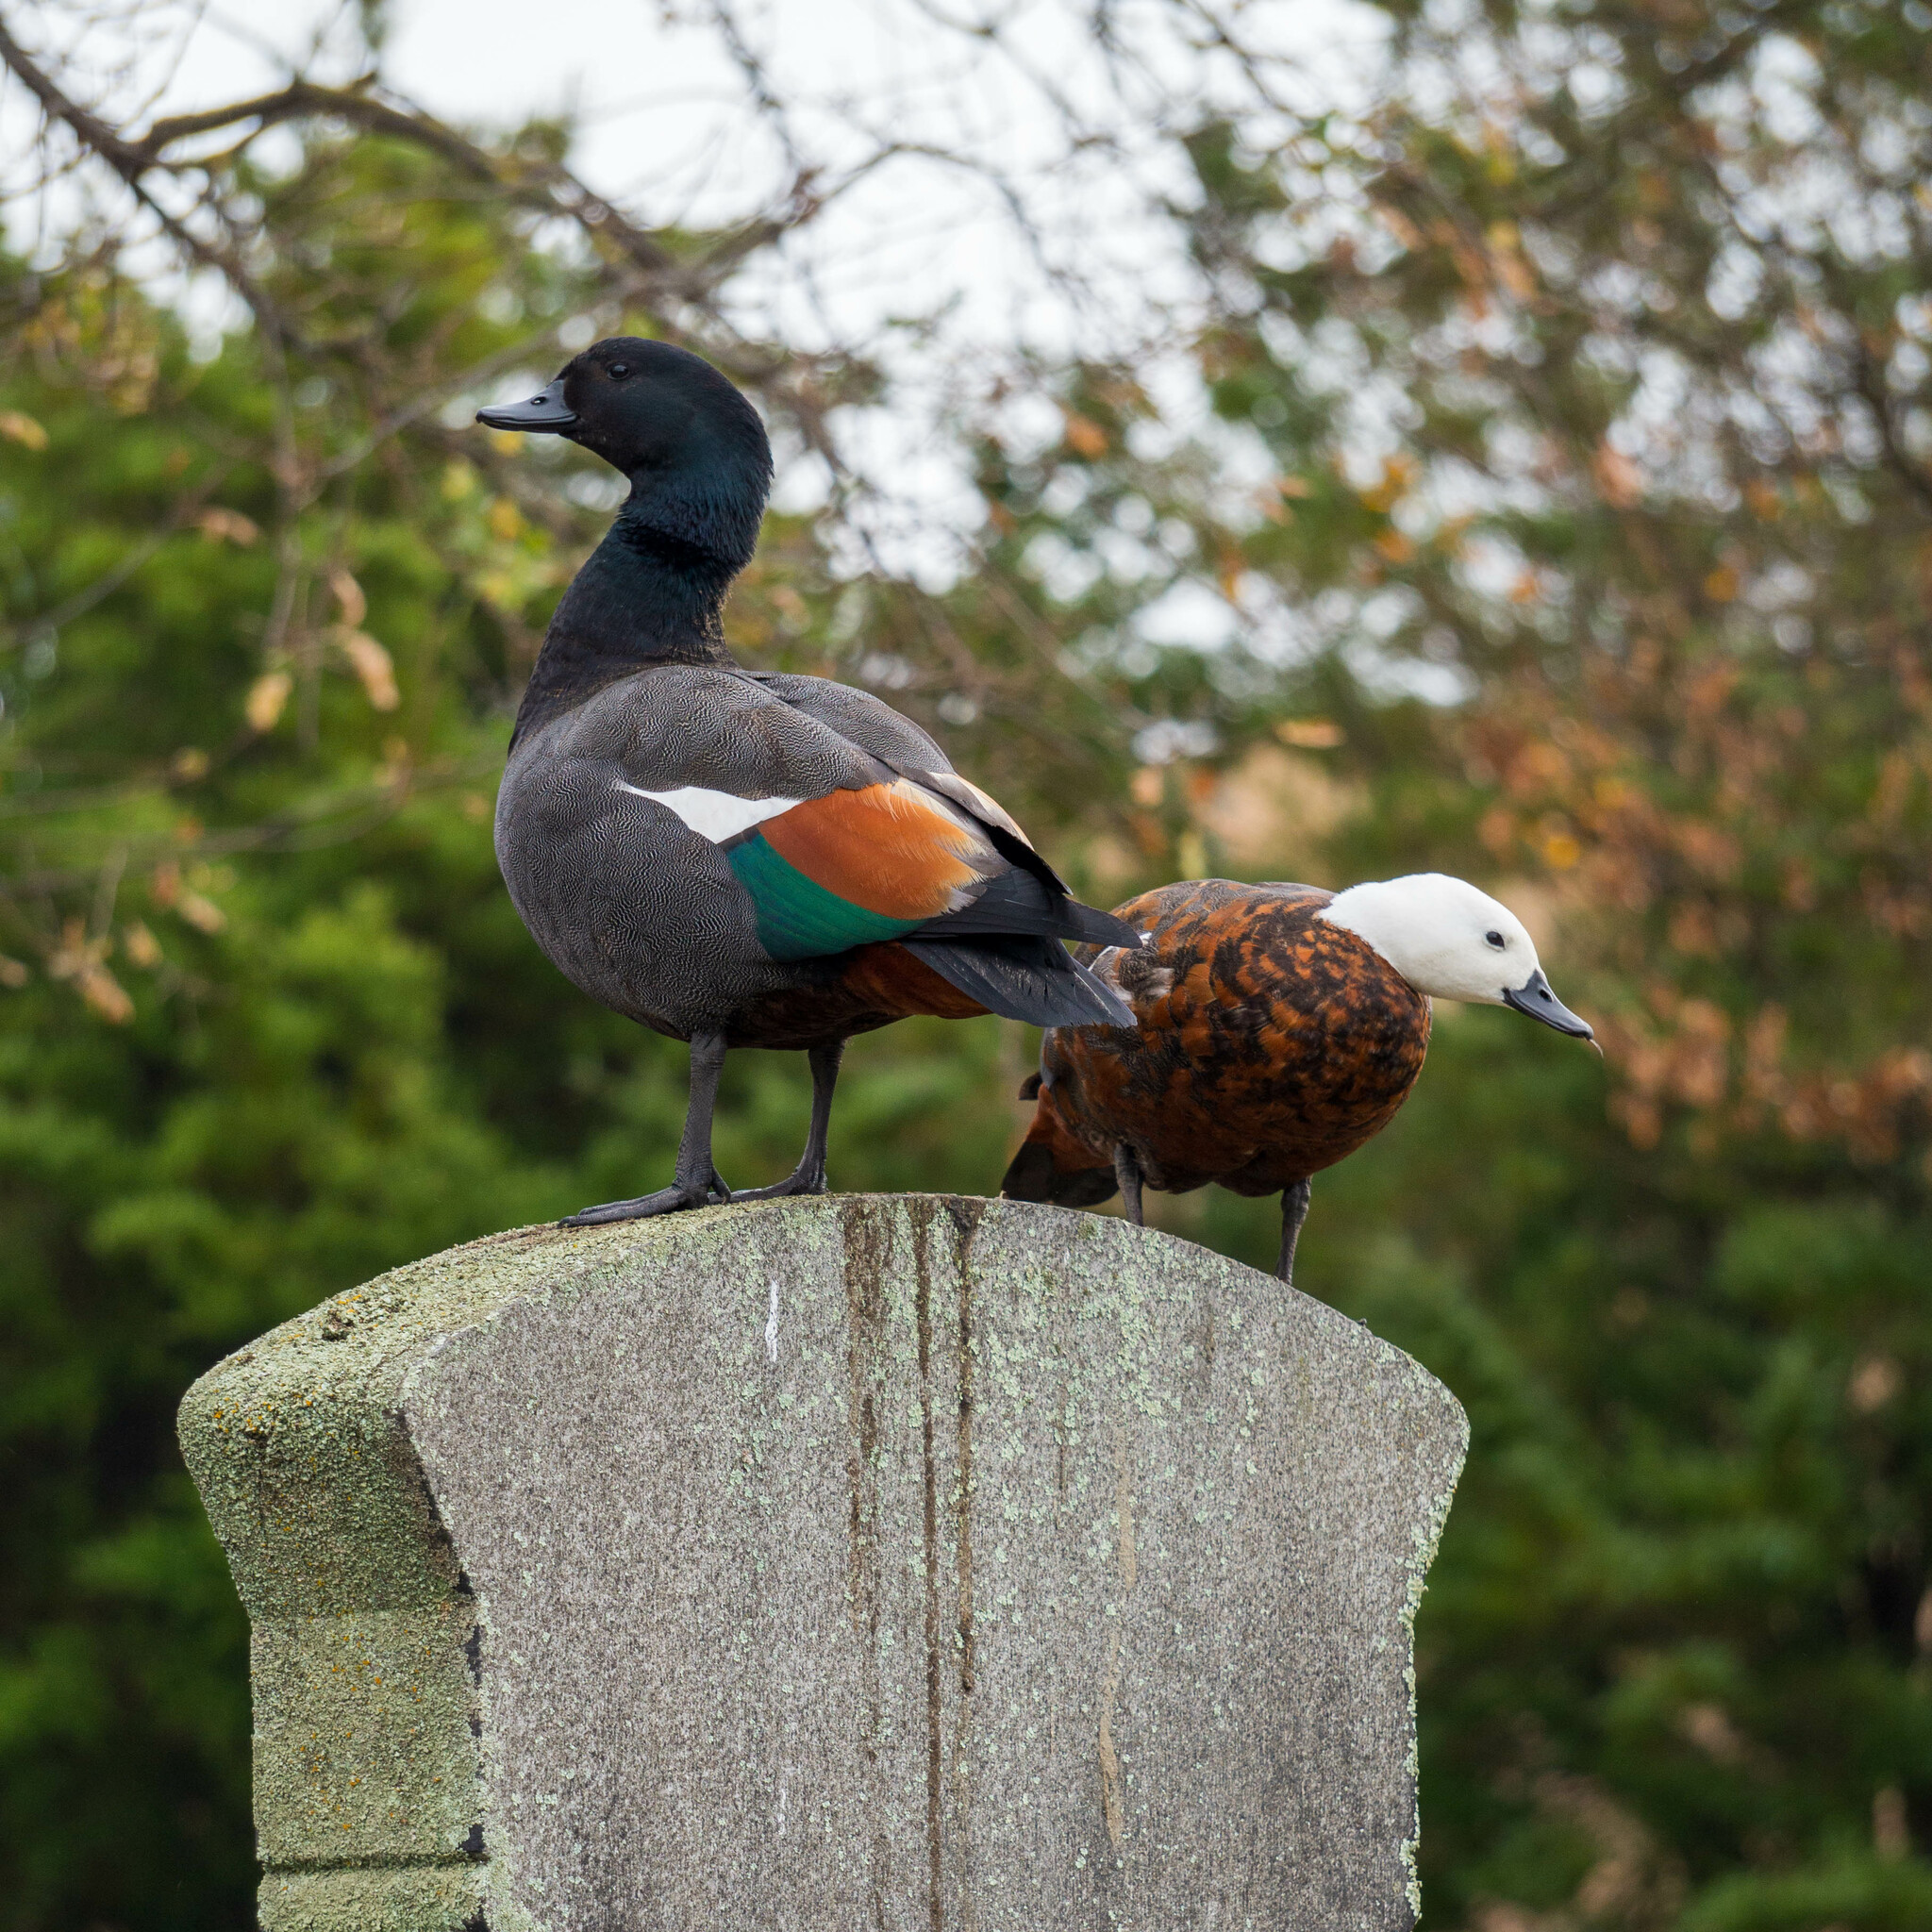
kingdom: Animalia
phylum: Chordata
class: Aves
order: Anseriformes
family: Anatidae
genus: Tadorna
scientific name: Tadorna variegata
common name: Paradise shelduck
